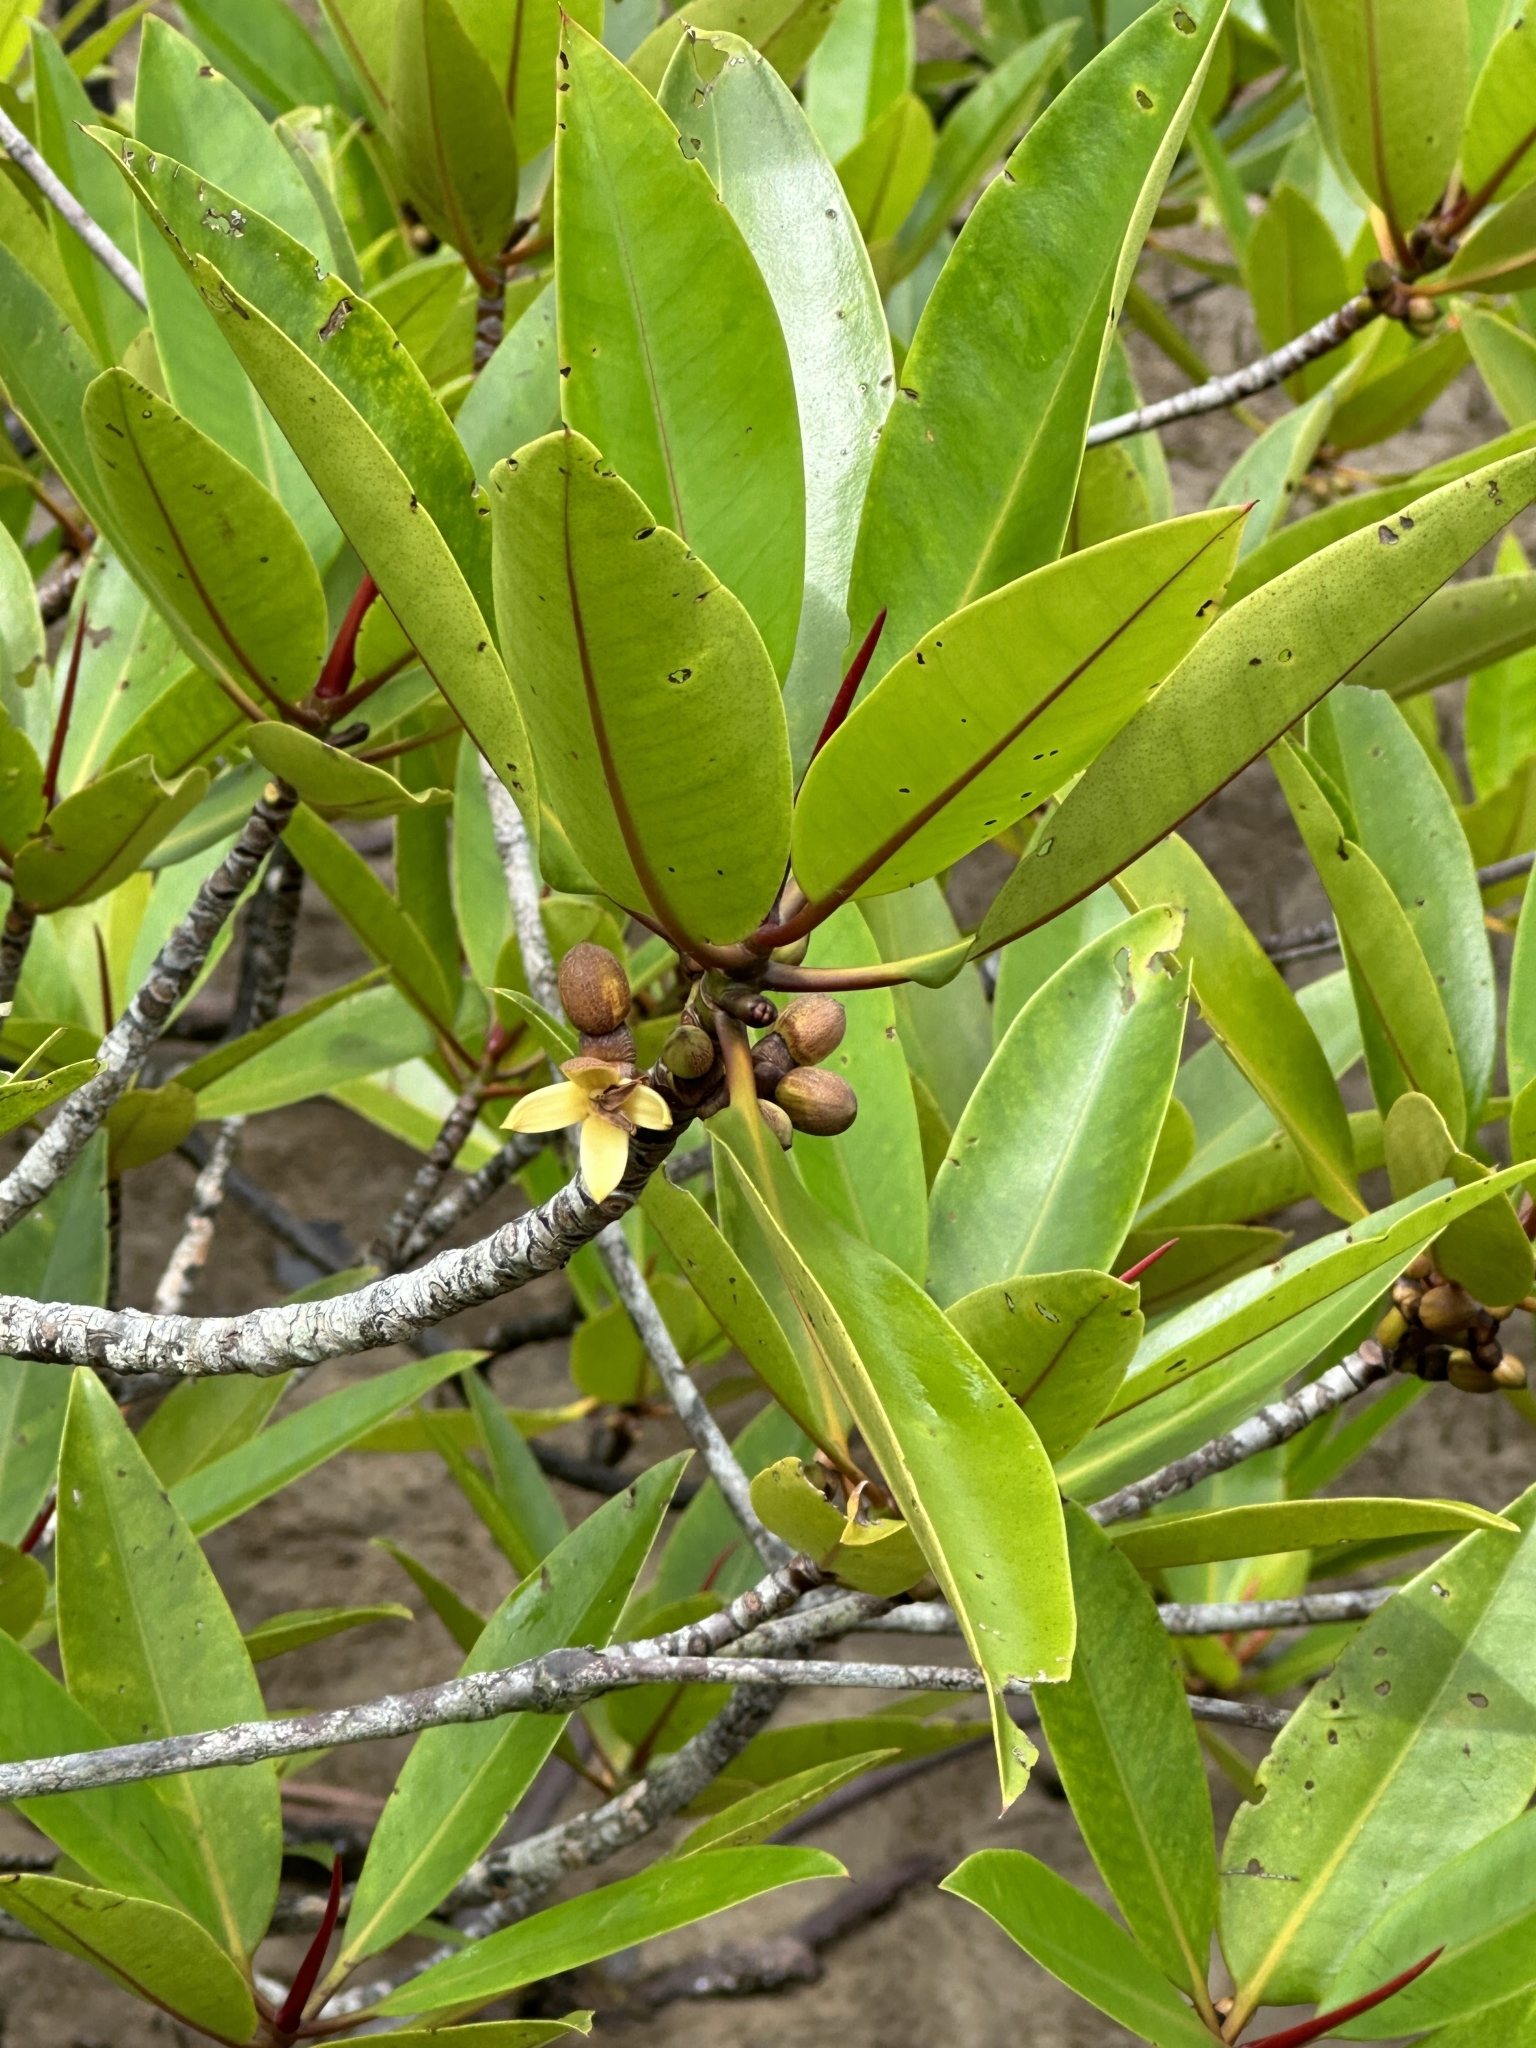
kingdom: Plantae
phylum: Tracheophyta
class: Magnoliopsida
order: Malpighiales
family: Rhizophoraceae
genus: Rhizophora
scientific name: Rhizophora apiculata
